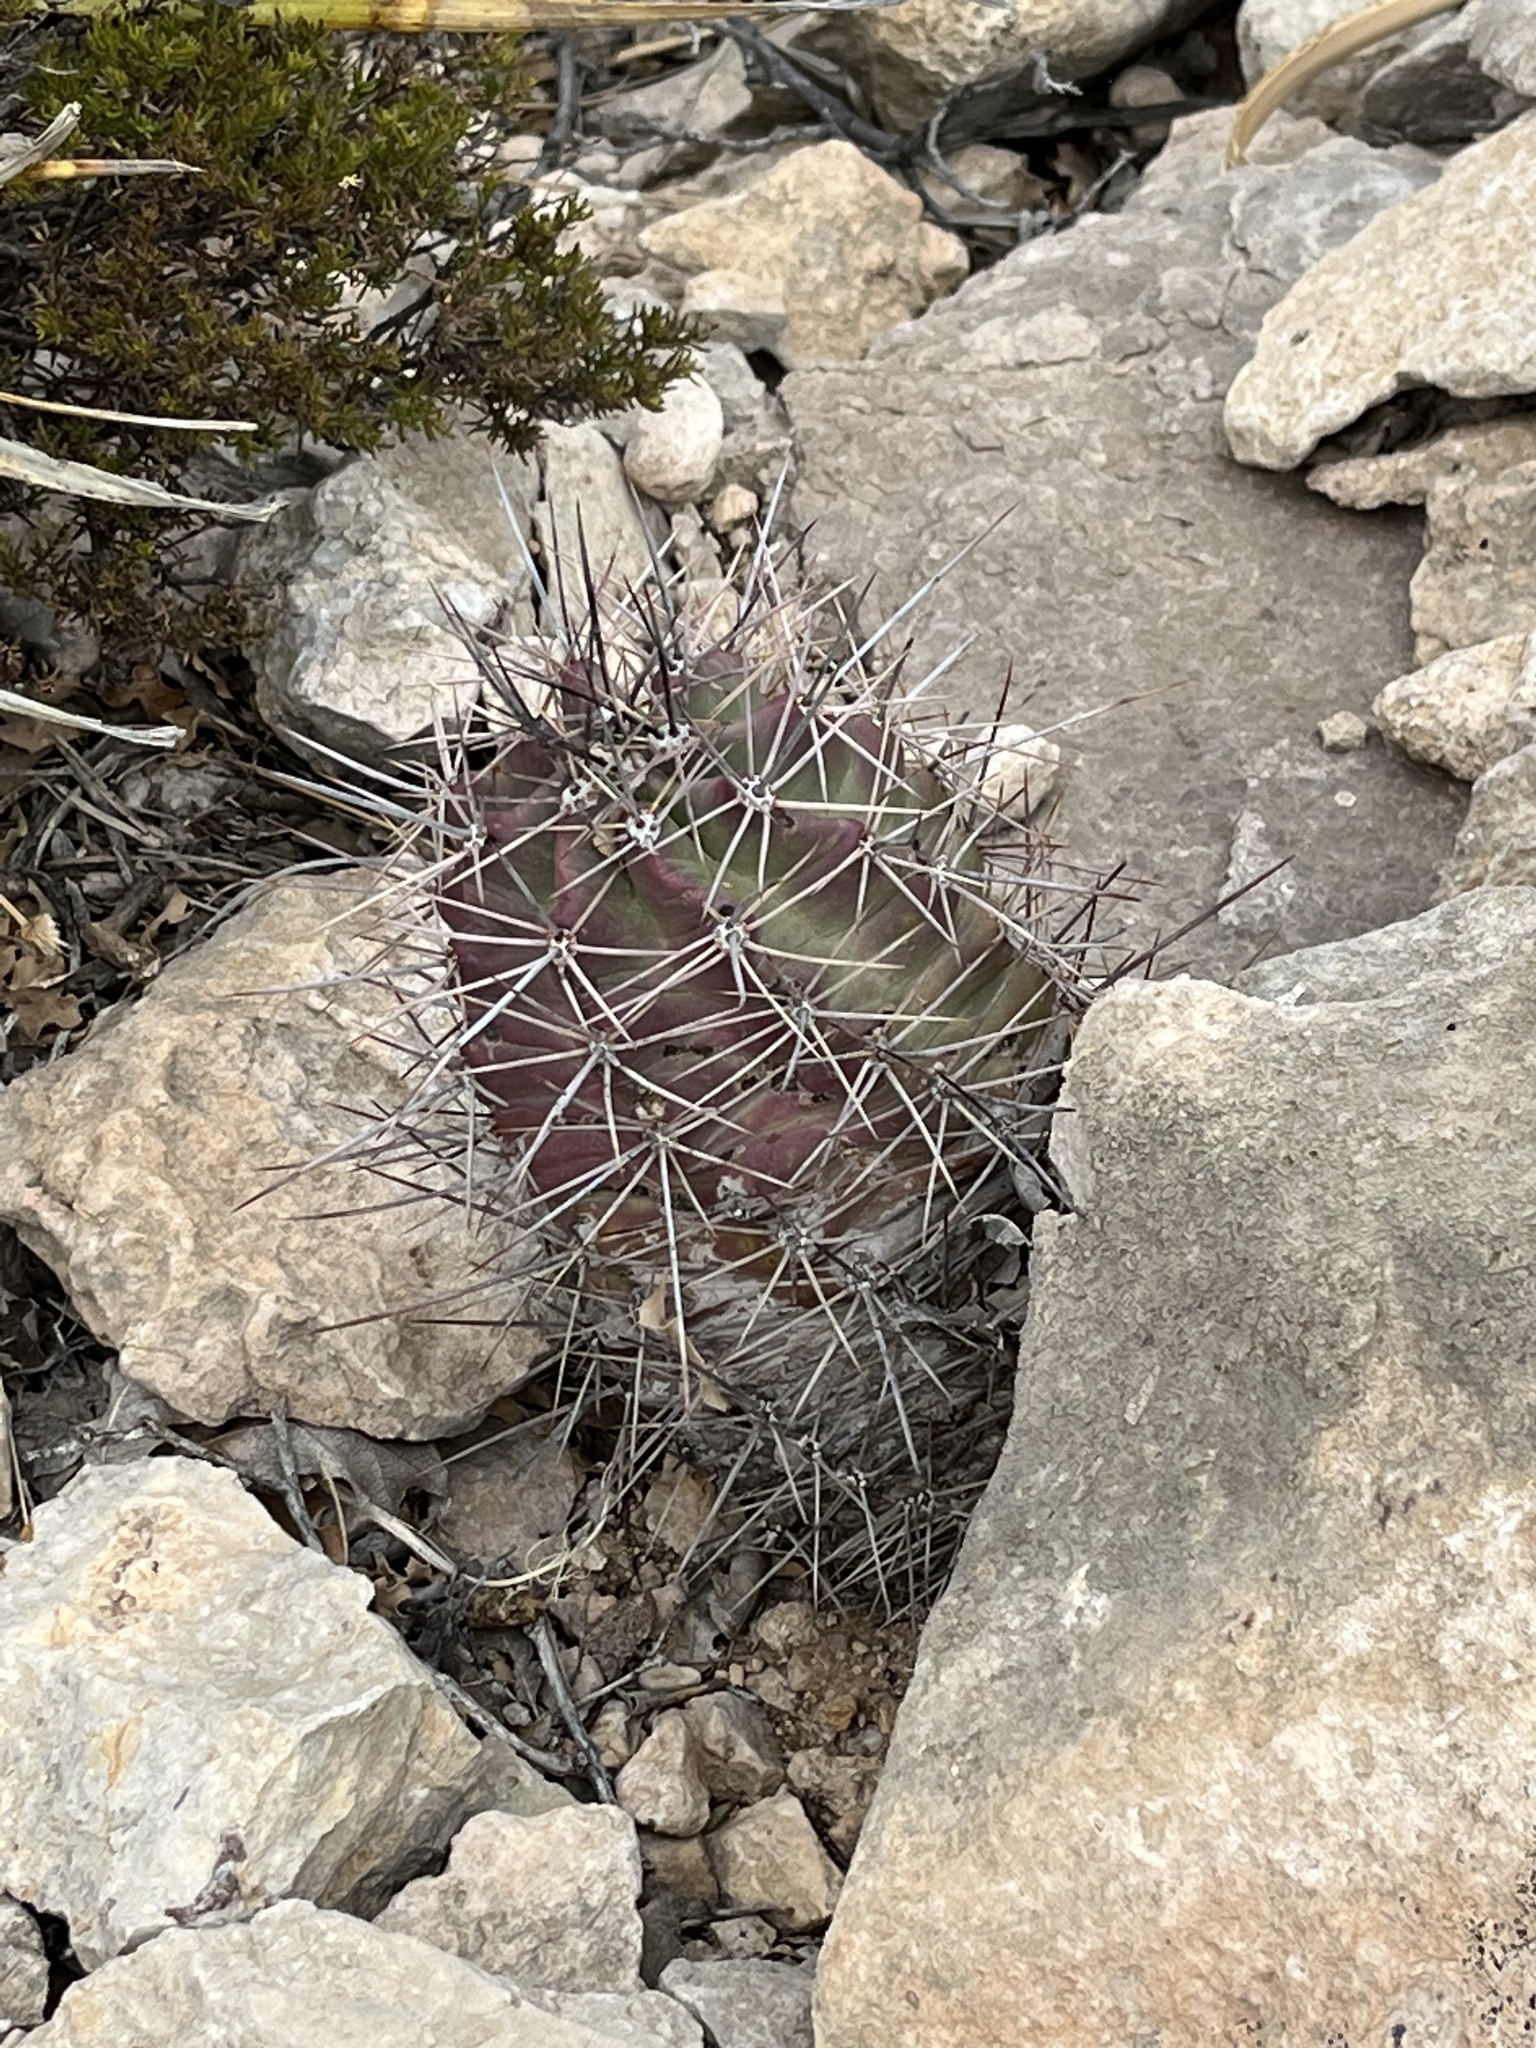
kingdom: Plantae
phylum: Tracheophyta
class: Magnoliopsida
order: Caryophyllales
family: Cactaceae
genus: Echinocereus
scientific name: Echinocereus coccineus
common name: Scarlet hedgehog cactus
